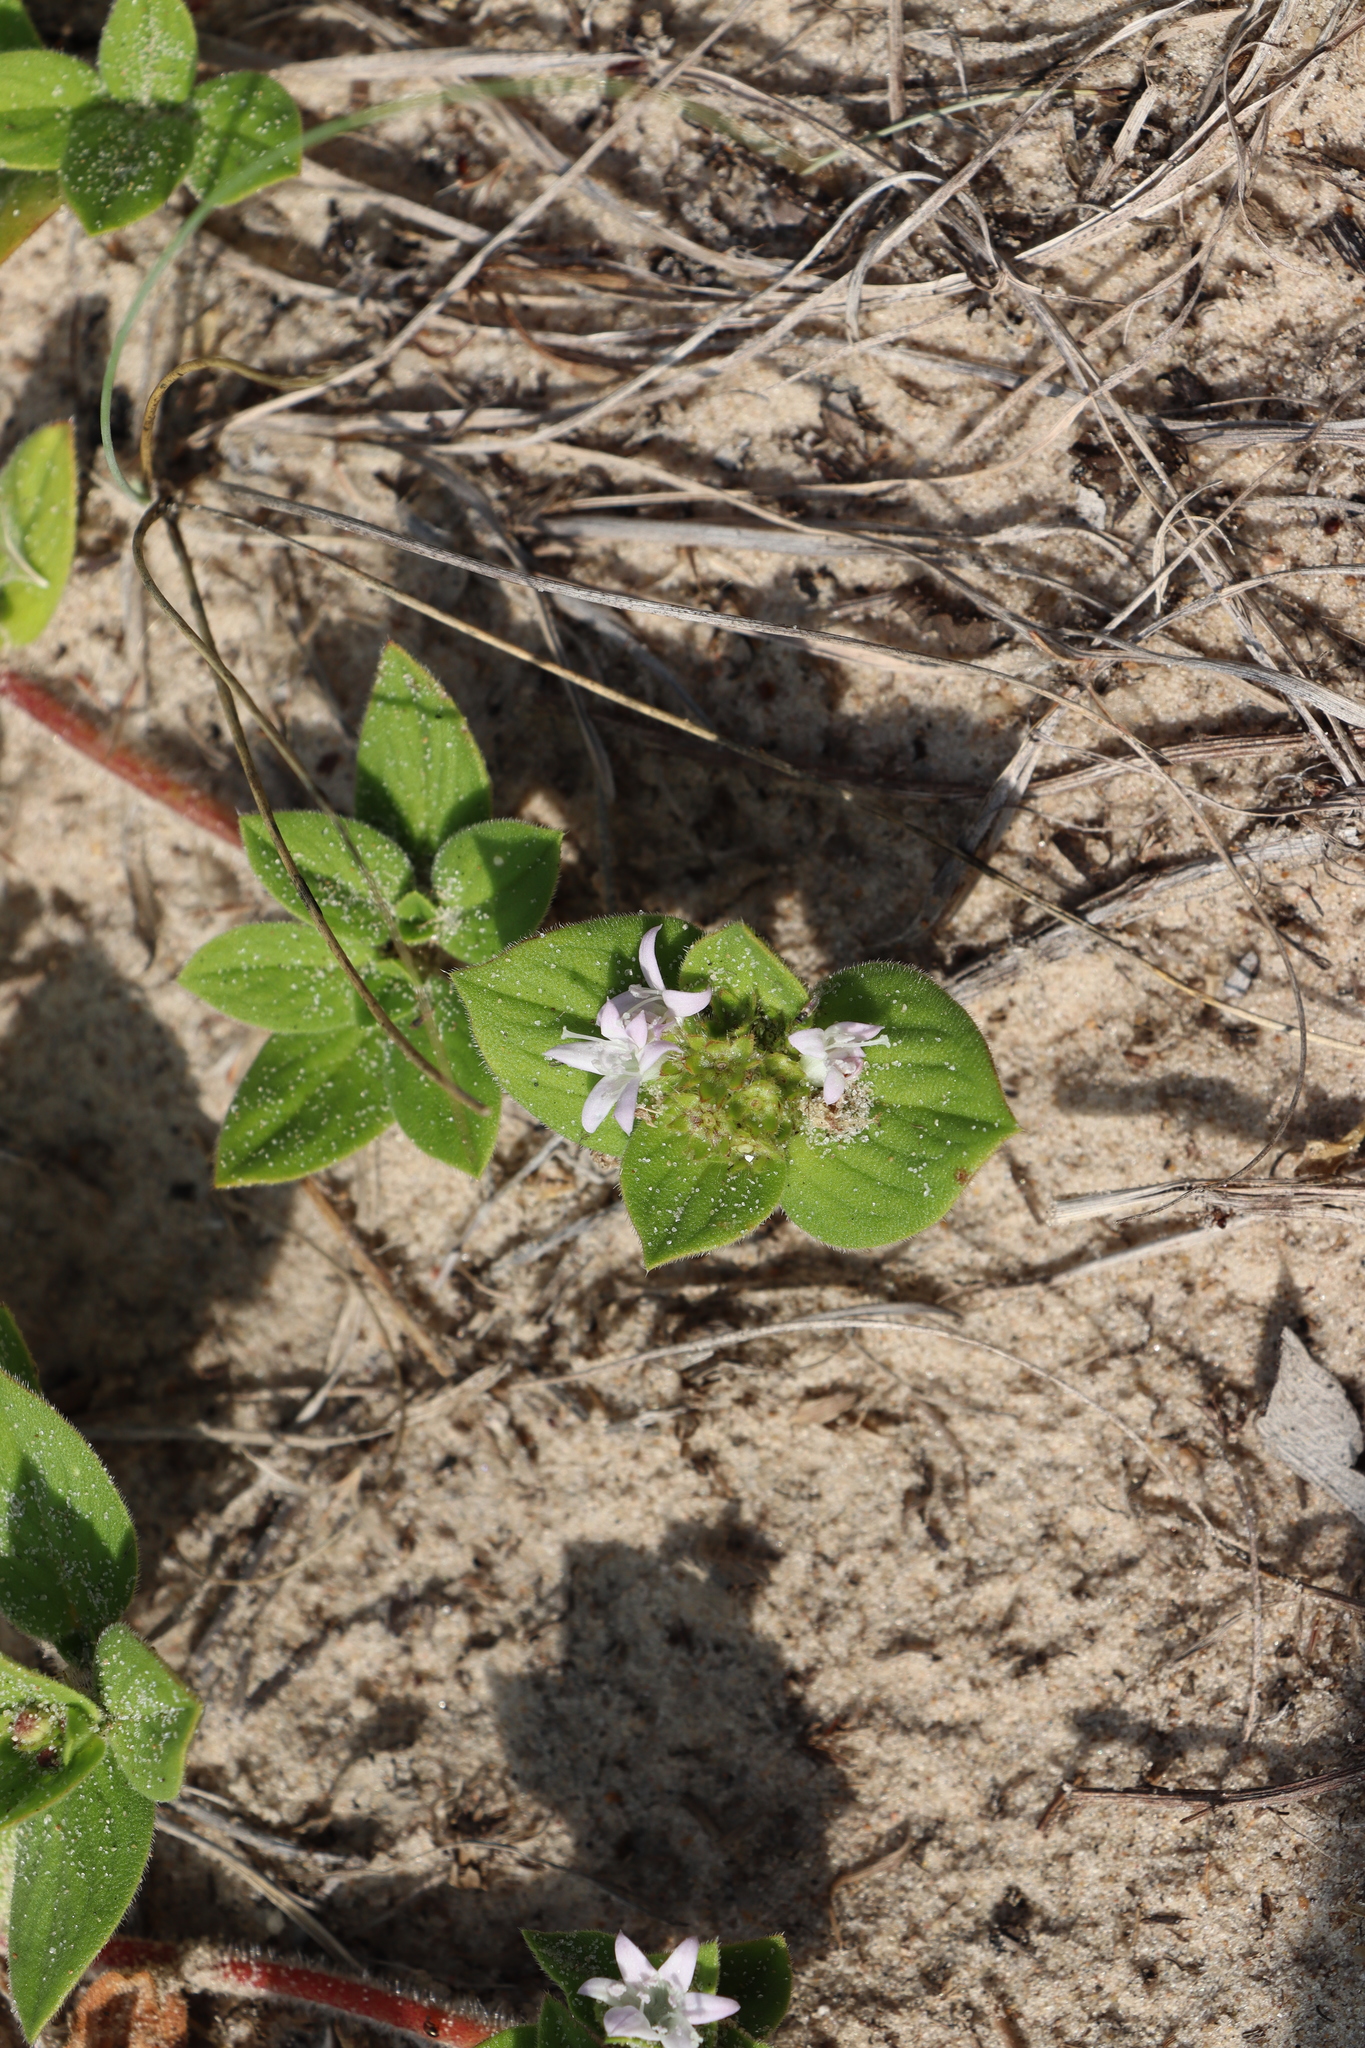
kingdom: Plantae
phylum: Tracheophyta
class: Magnoliopsida
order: Gentianales
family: Rubiaceae
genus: Richardia
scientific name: Richardia brasiliensis
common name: Tropical mexican clover
